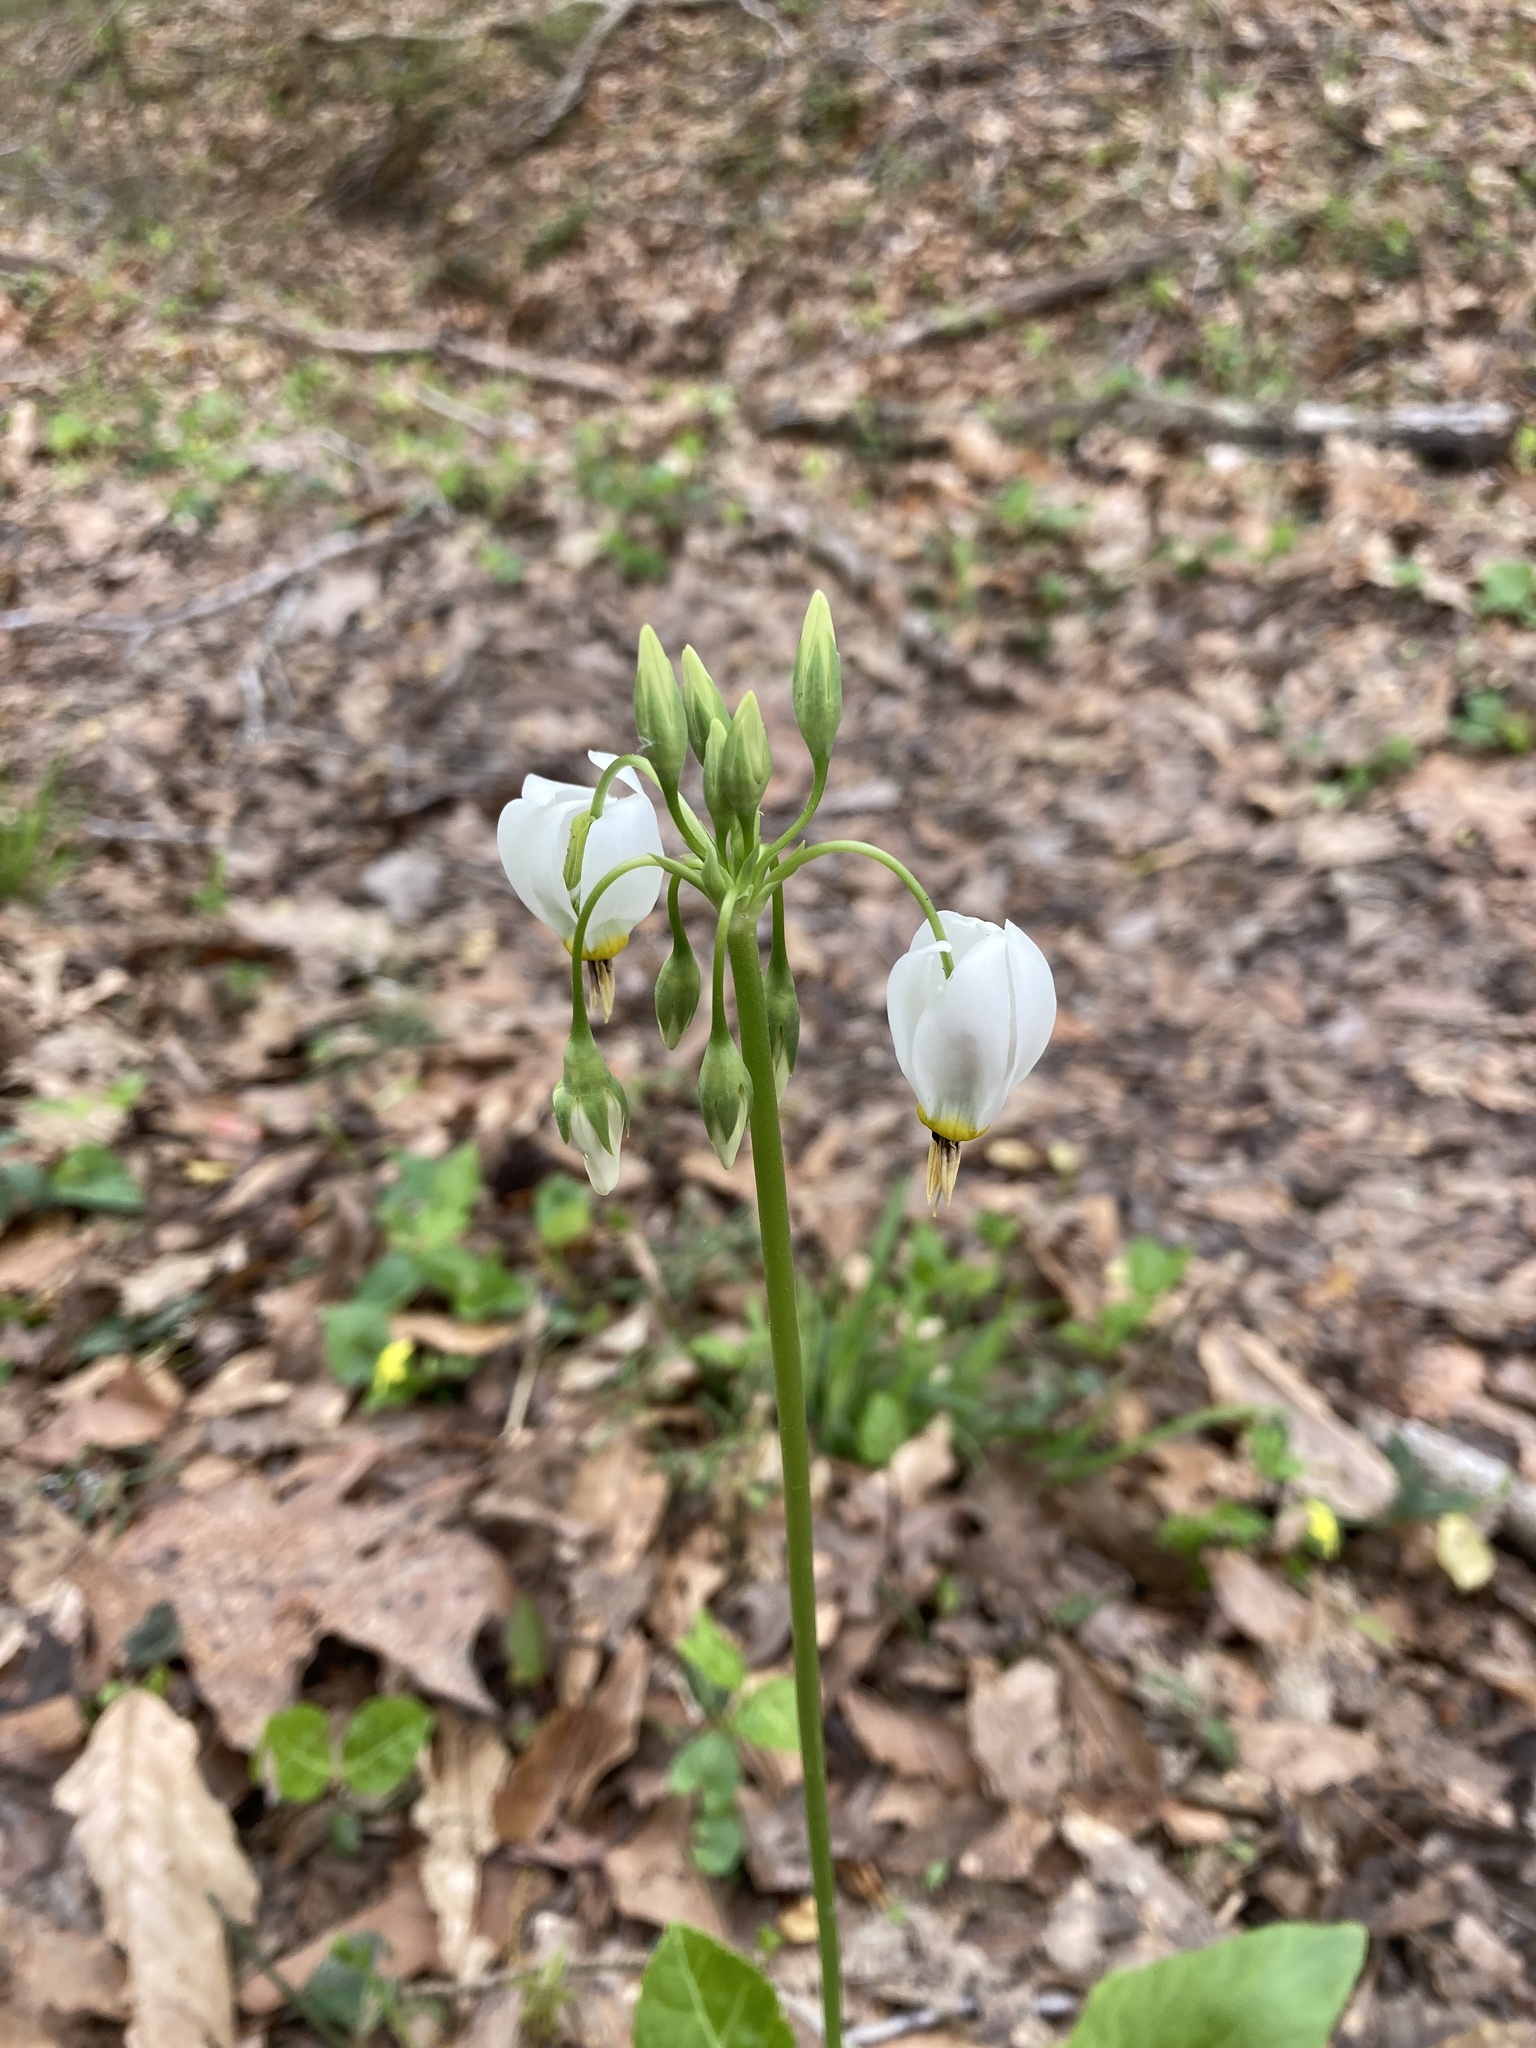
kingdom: Plantae
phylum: Tracheophyta
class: Magnoliopsida
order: Ericales
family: Primulaceae
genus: Dodecatheon
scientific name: Dodecatheon meadia
